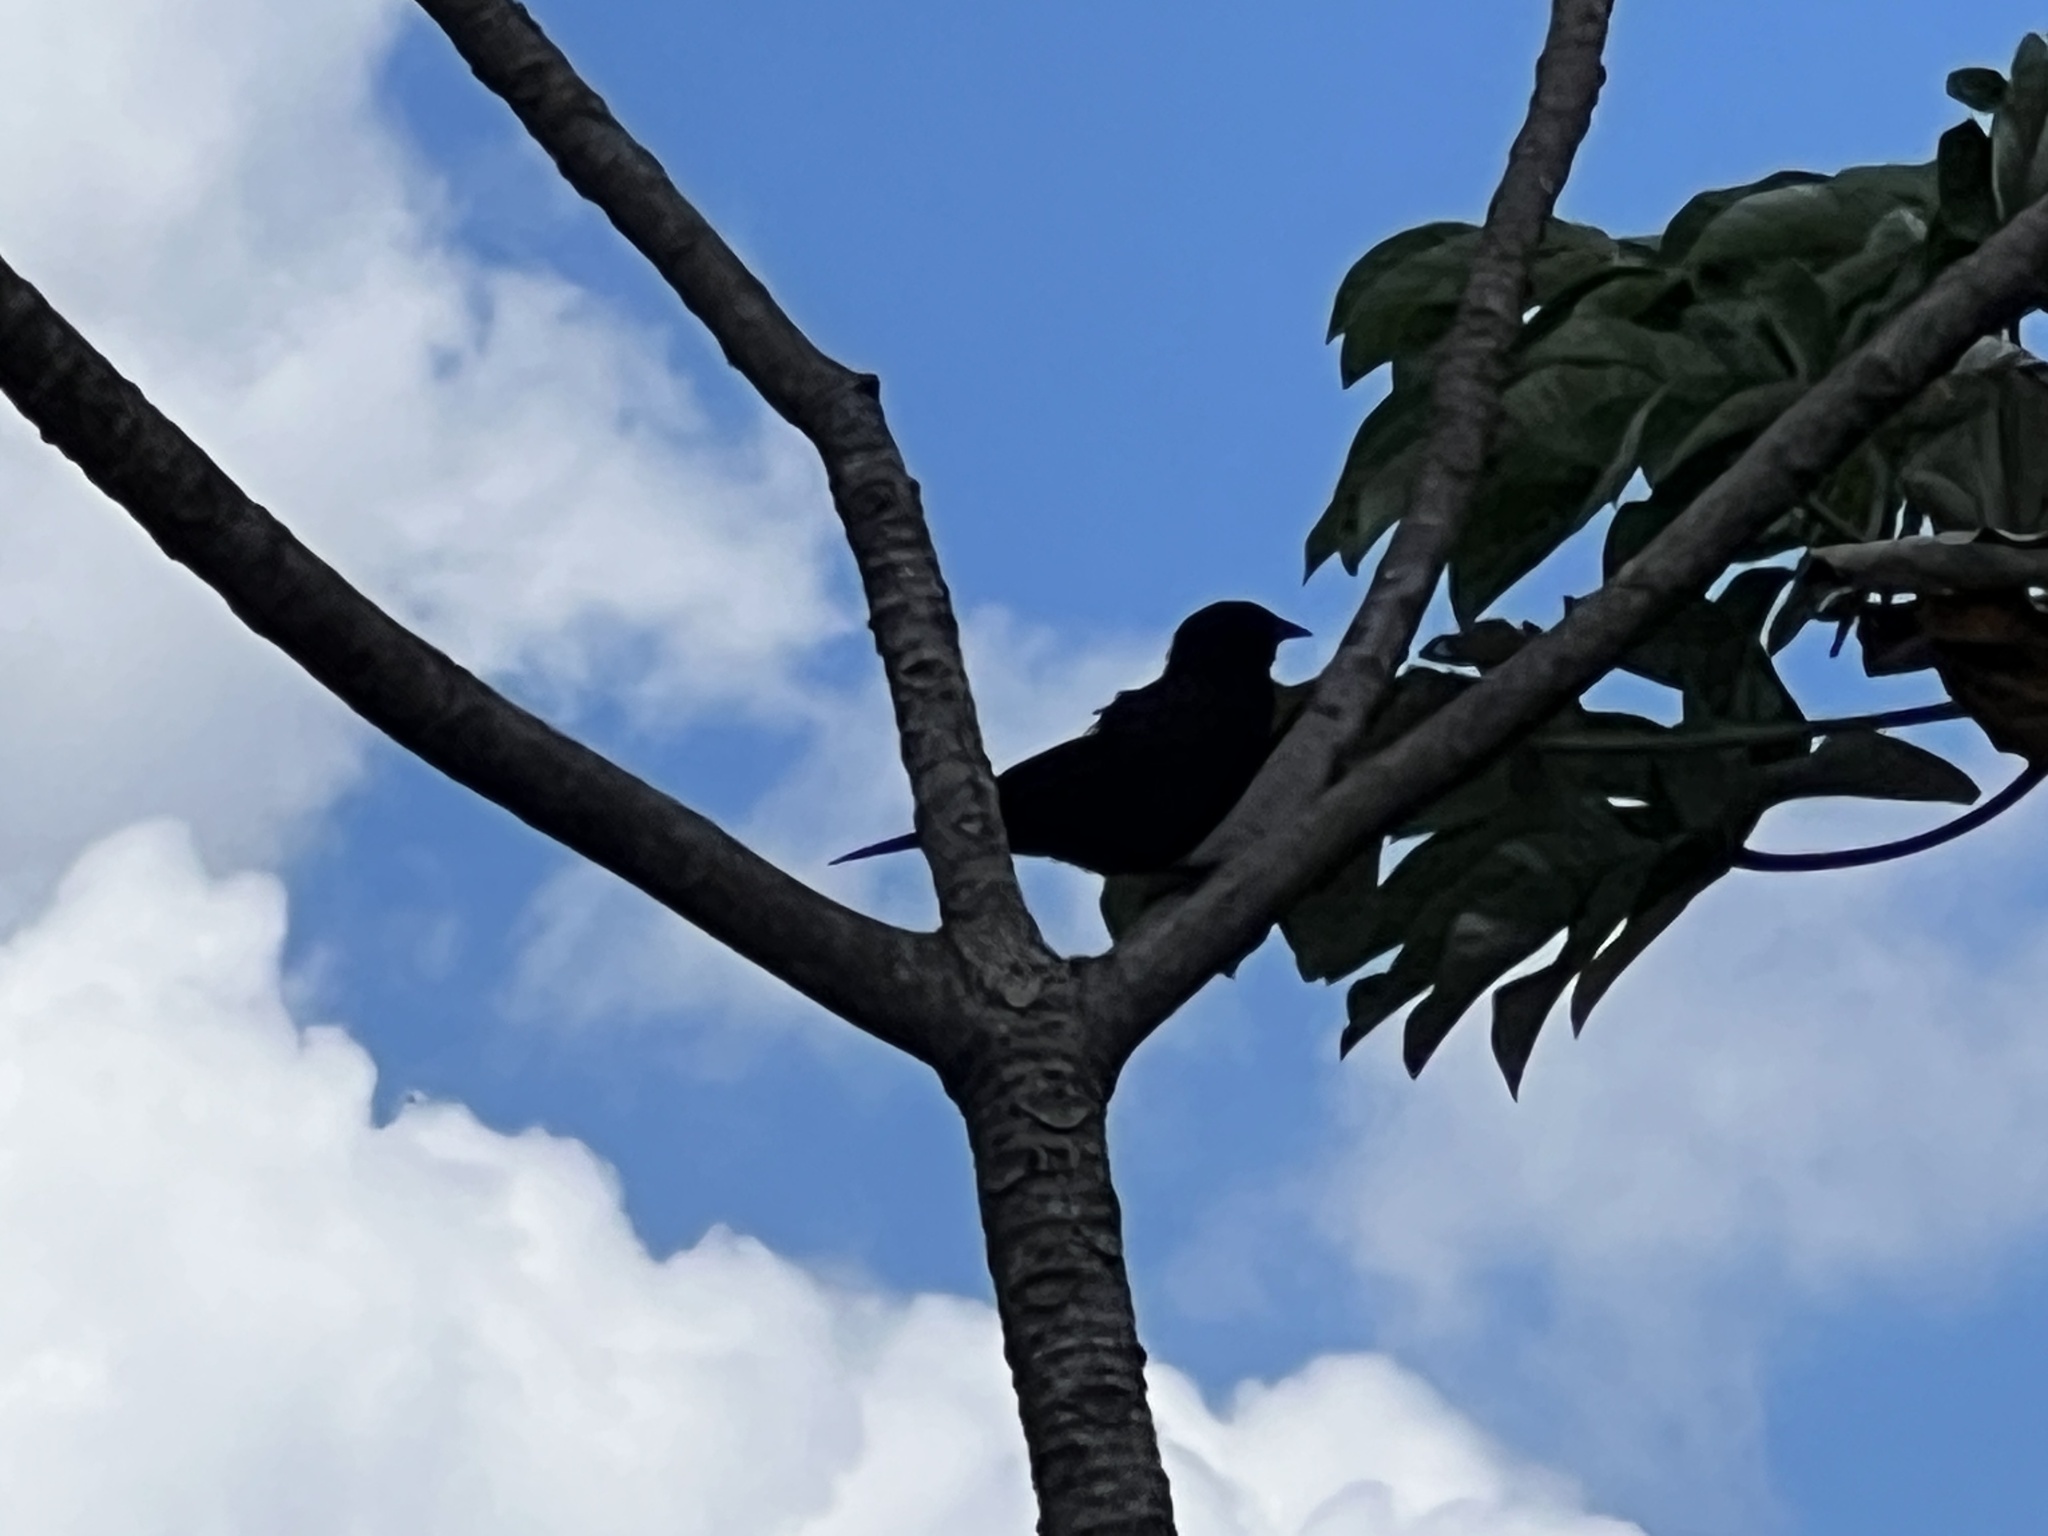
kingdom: Animalia
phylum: Chordata
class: Aves
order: Passeriformes
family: Icteridae
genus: Gnorimopsar
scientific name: Gnorimopsar chopi
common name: Chopi blackbird
